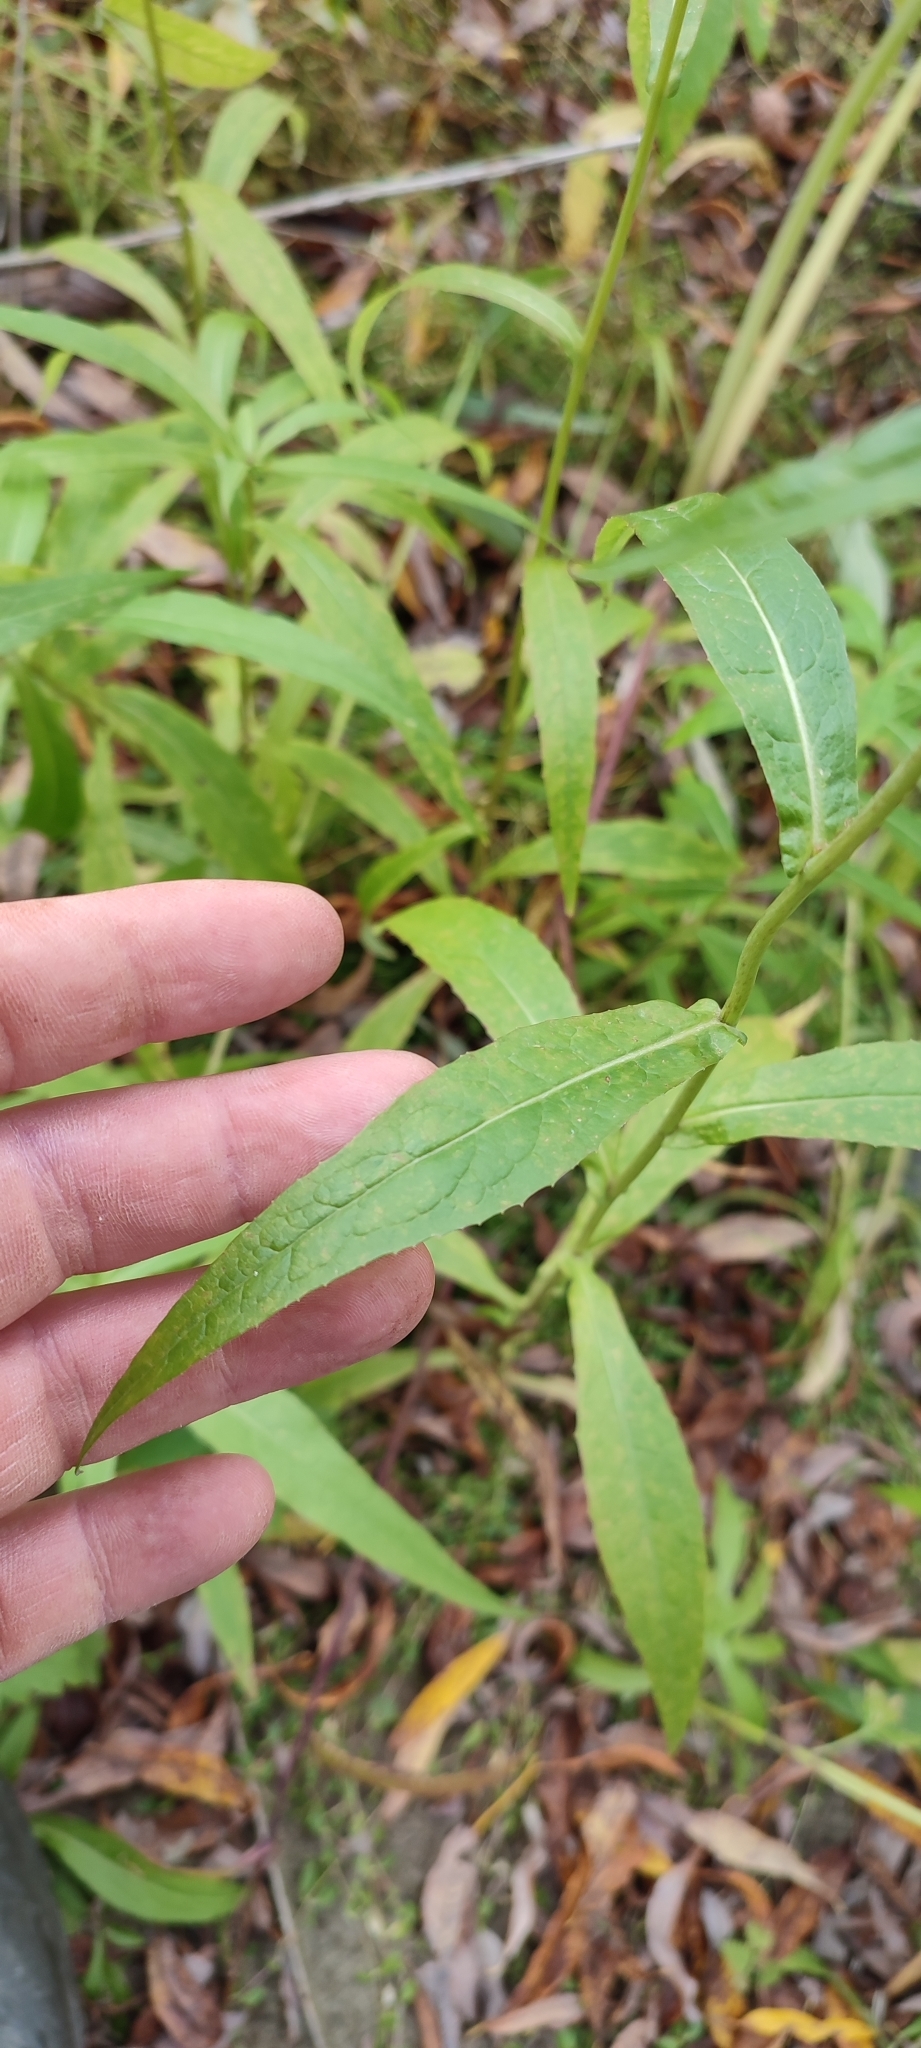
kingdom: Plantae
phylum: Tracheophyta
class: Magnoliopsida
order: Asterales
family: Asteraceae
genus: Lactuca
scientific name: Lactuca sibirica
